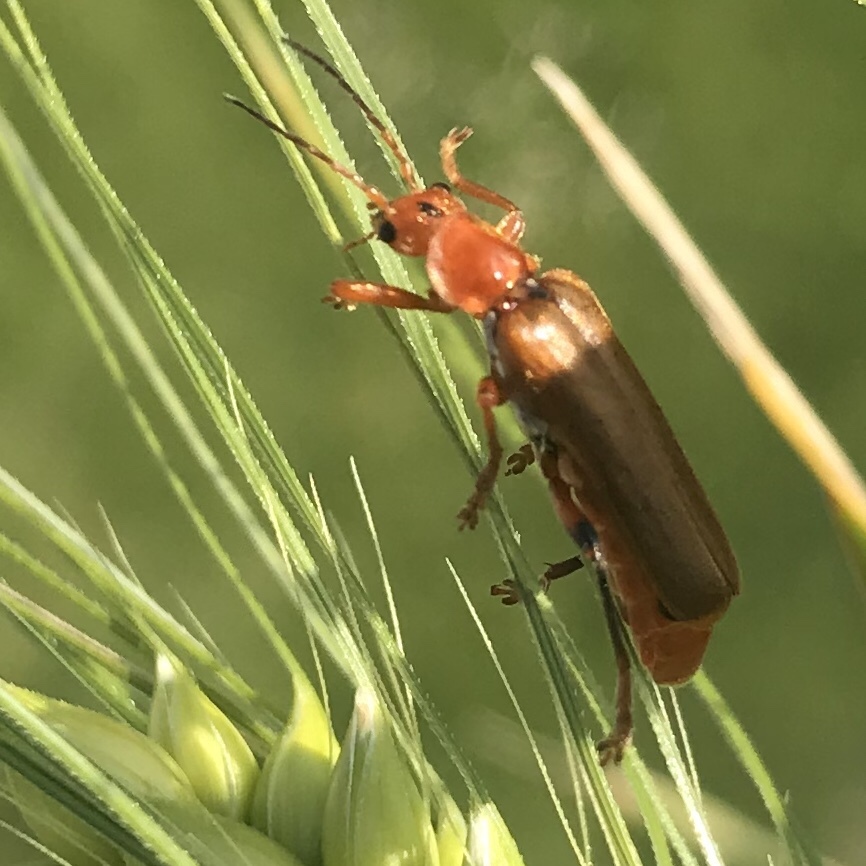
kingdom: Animalia
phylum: Arthropoda
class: Insecta
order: Coleoptera
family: Cantharidae
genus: Cantharis
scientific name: Cantharis livida
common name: Livid soldier beetle
